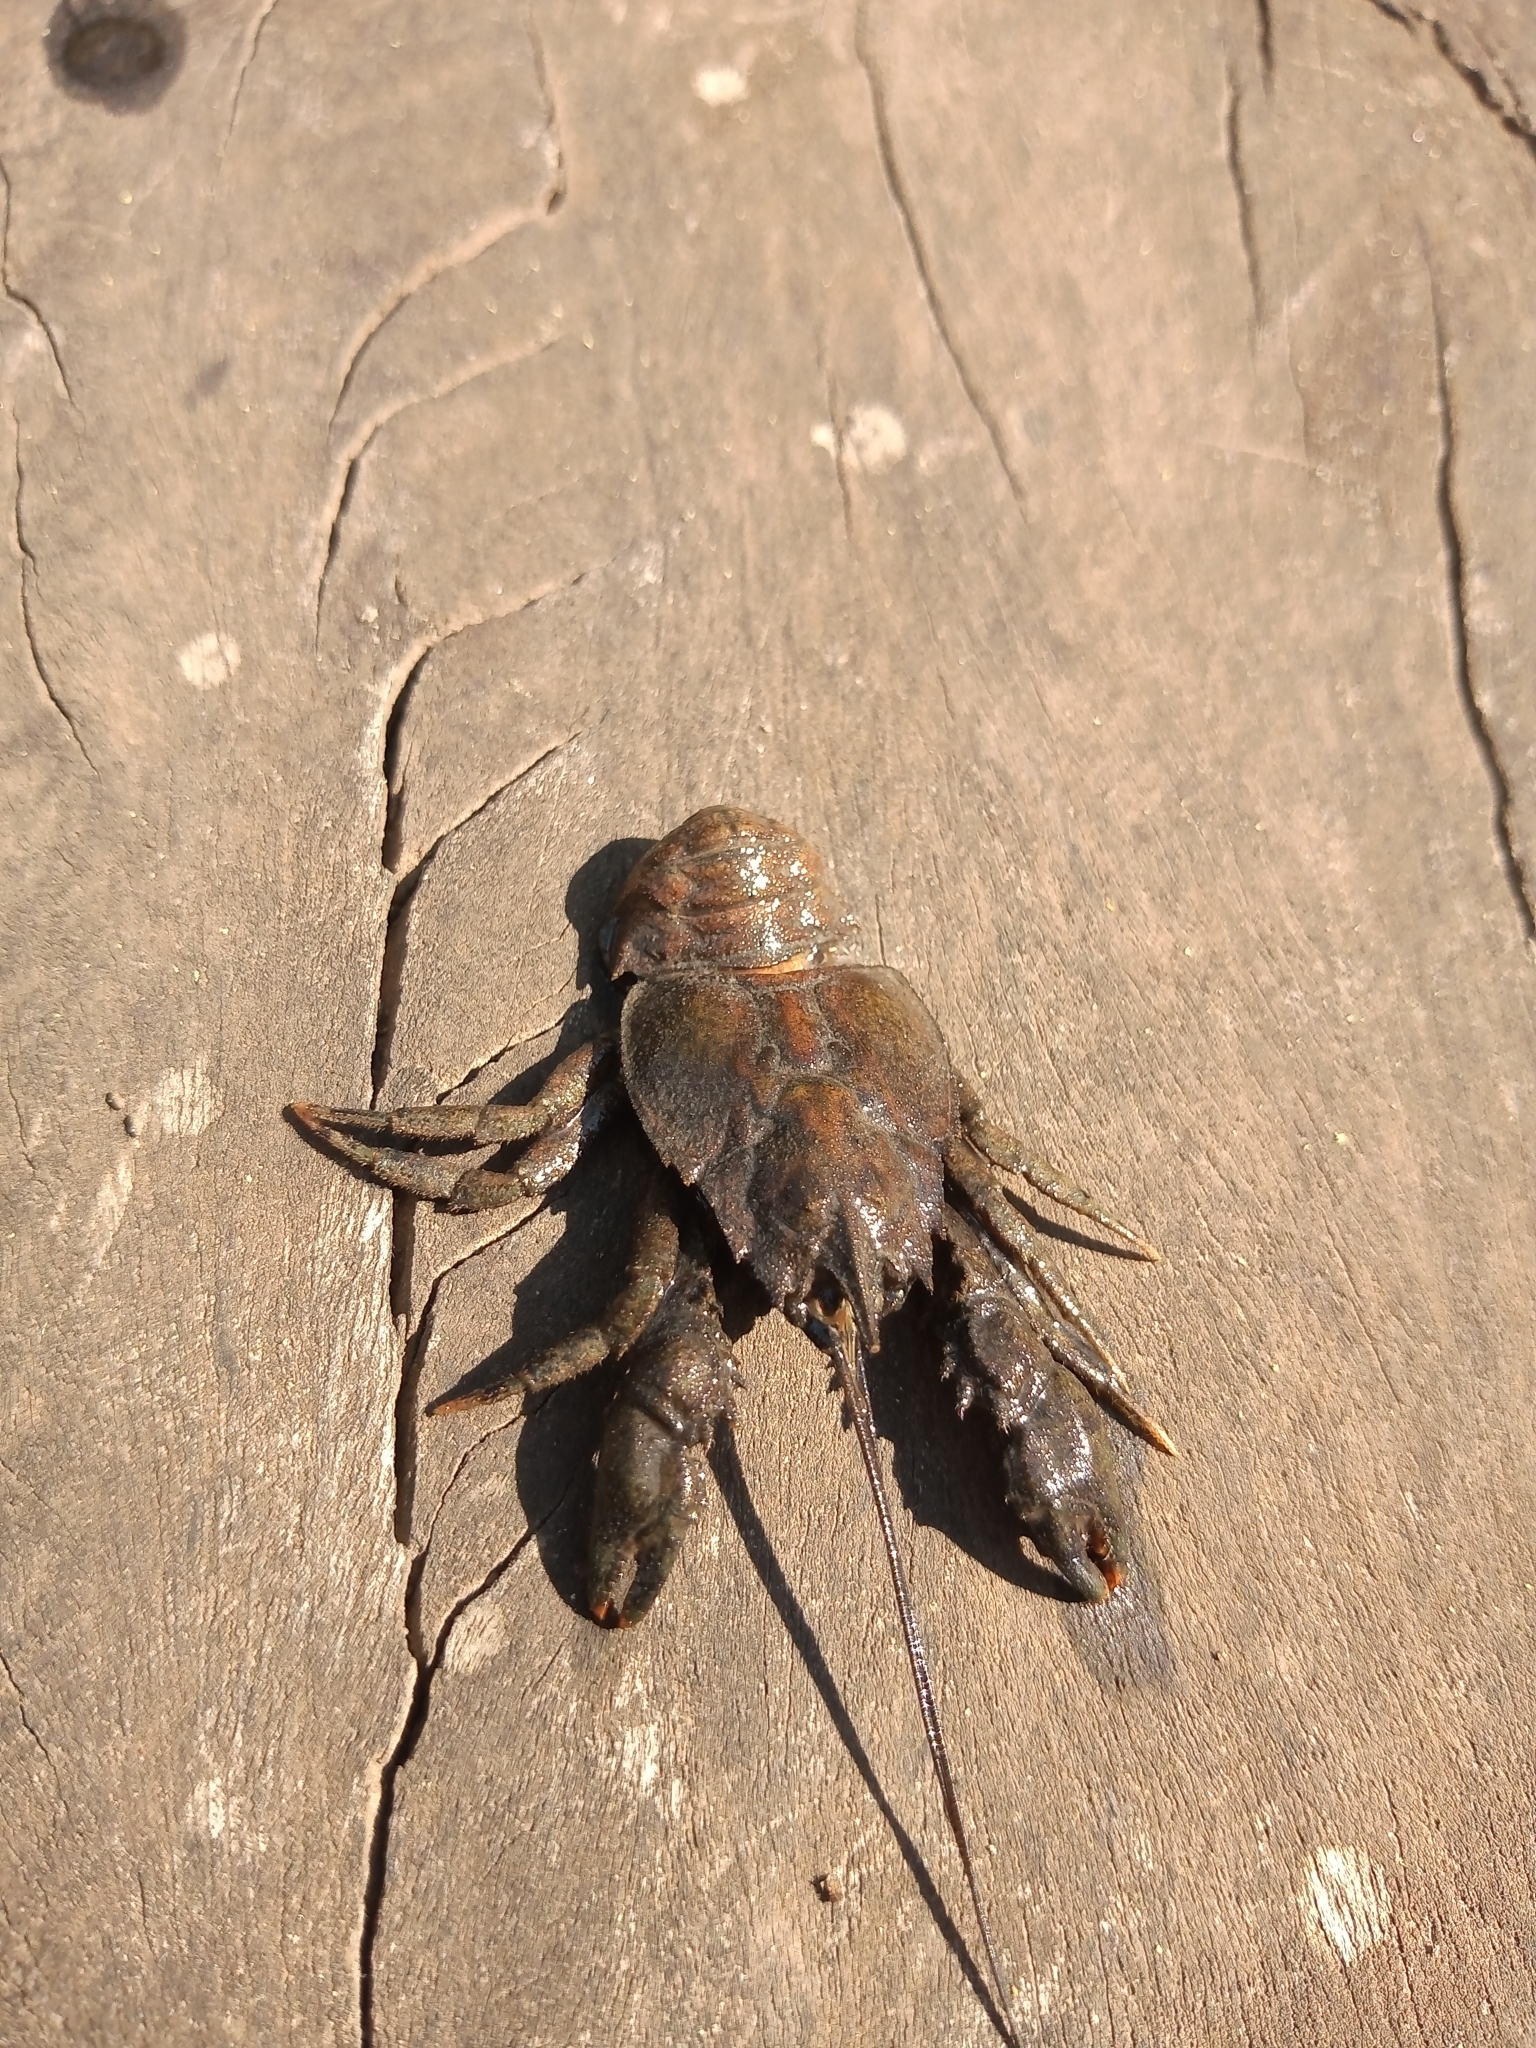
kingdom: Animalia
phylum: Arthropoda
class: Malacostraca
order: Decapoda
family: Aeglidae
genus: Aegla
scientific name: Aegla singularis
